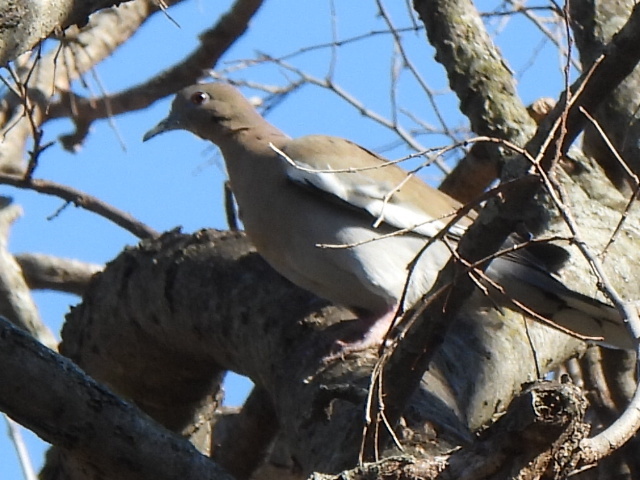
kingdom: Animalia
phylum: Chordata
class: Aves
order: Columbiformes
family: Columbidae
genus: Zenaida
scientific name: Zenaida asiatica
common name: White-winged dove
